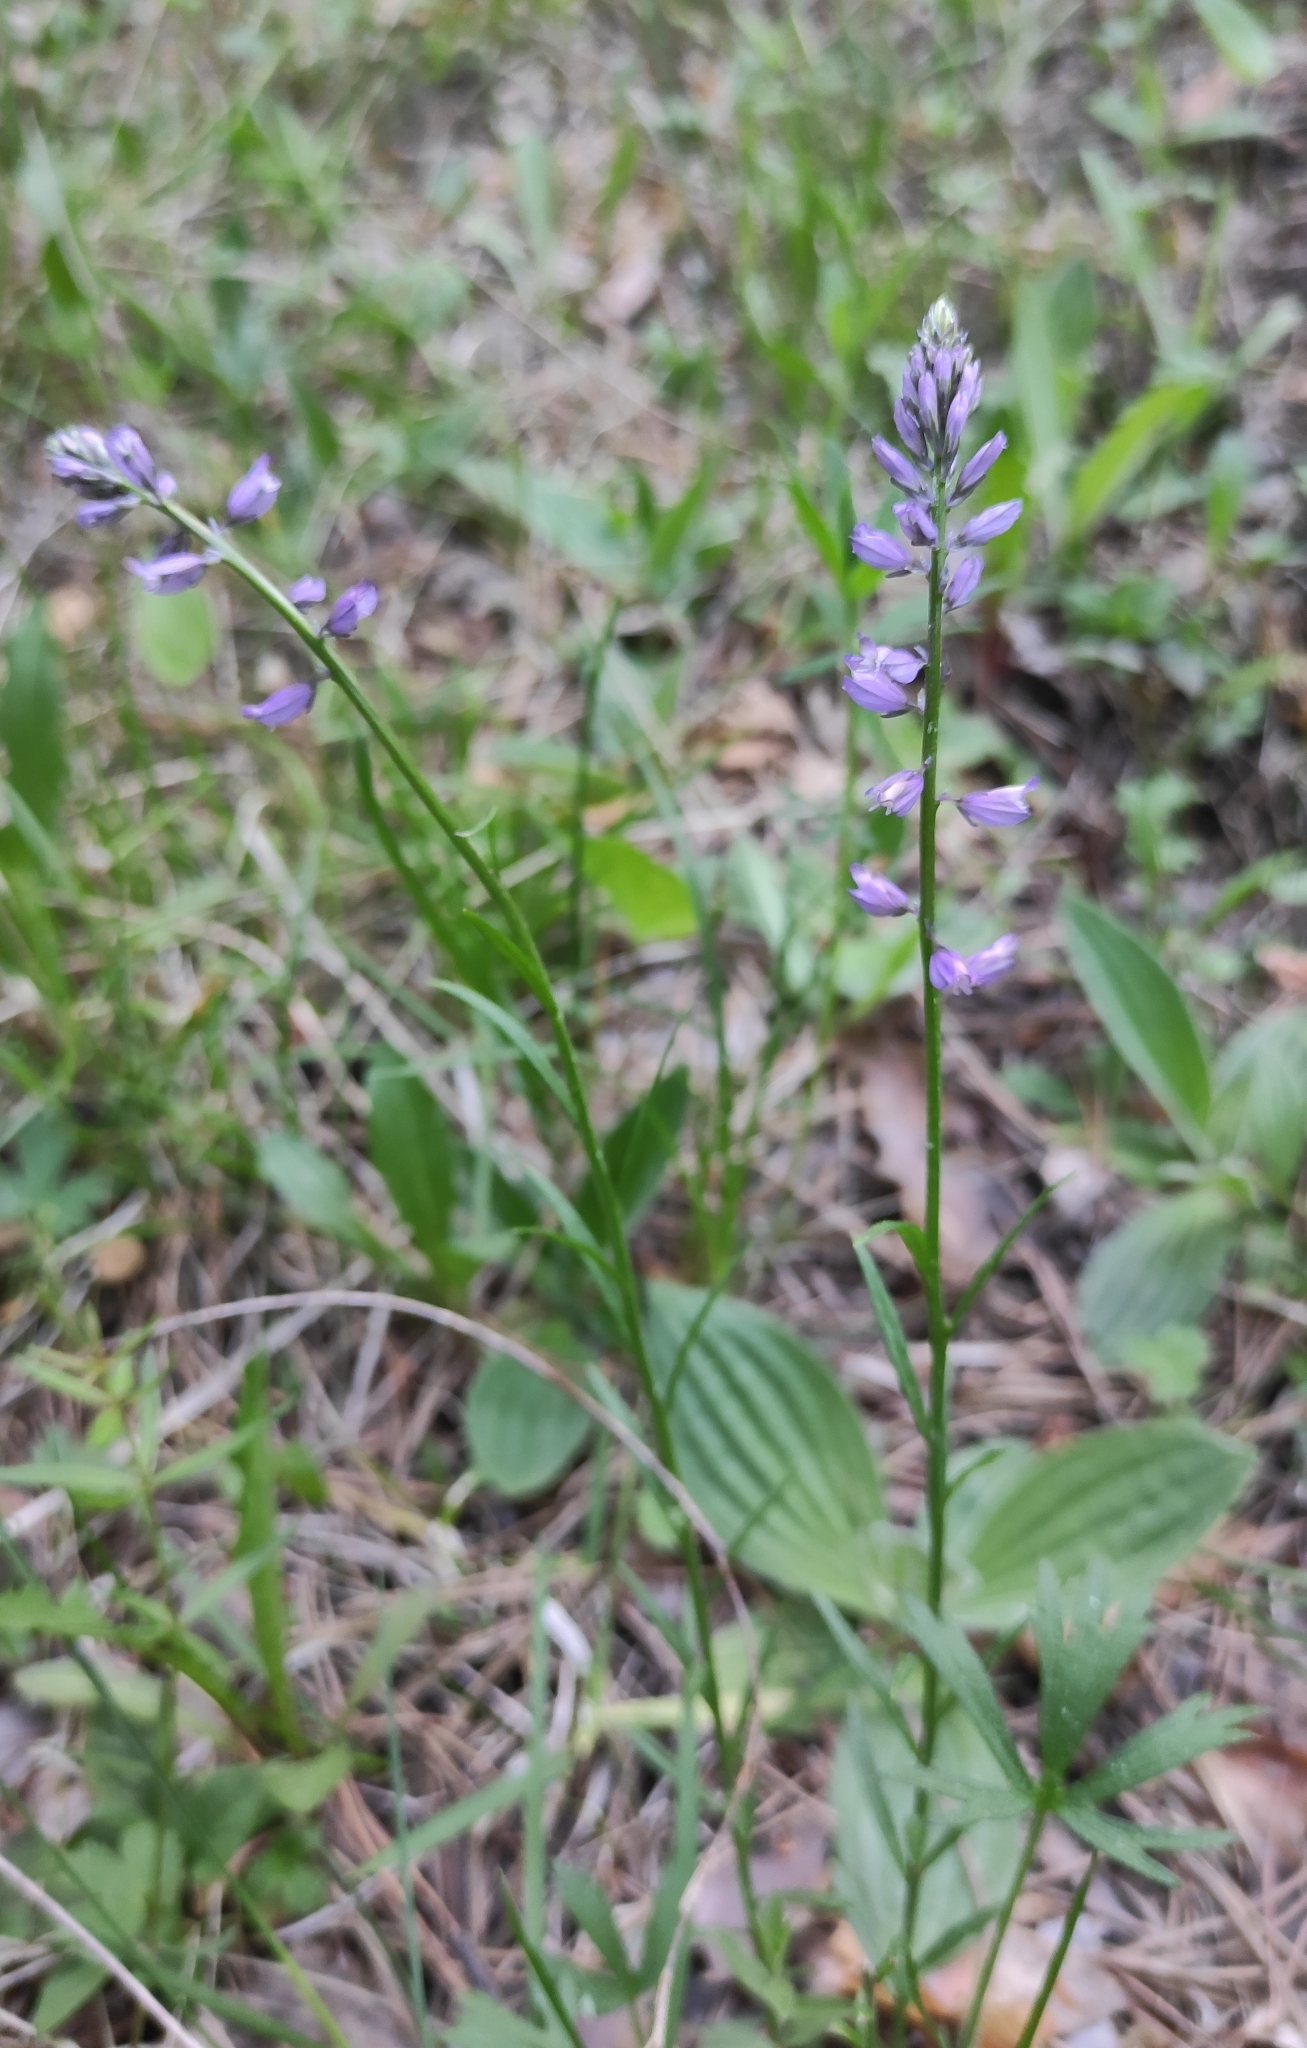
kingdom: Plantae
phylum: Tracheophyta
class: Magnoliopsida
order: Fabales
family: Polygalaceae
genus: Polygala
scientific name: Polygala comosa
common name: Tufted milkwort
